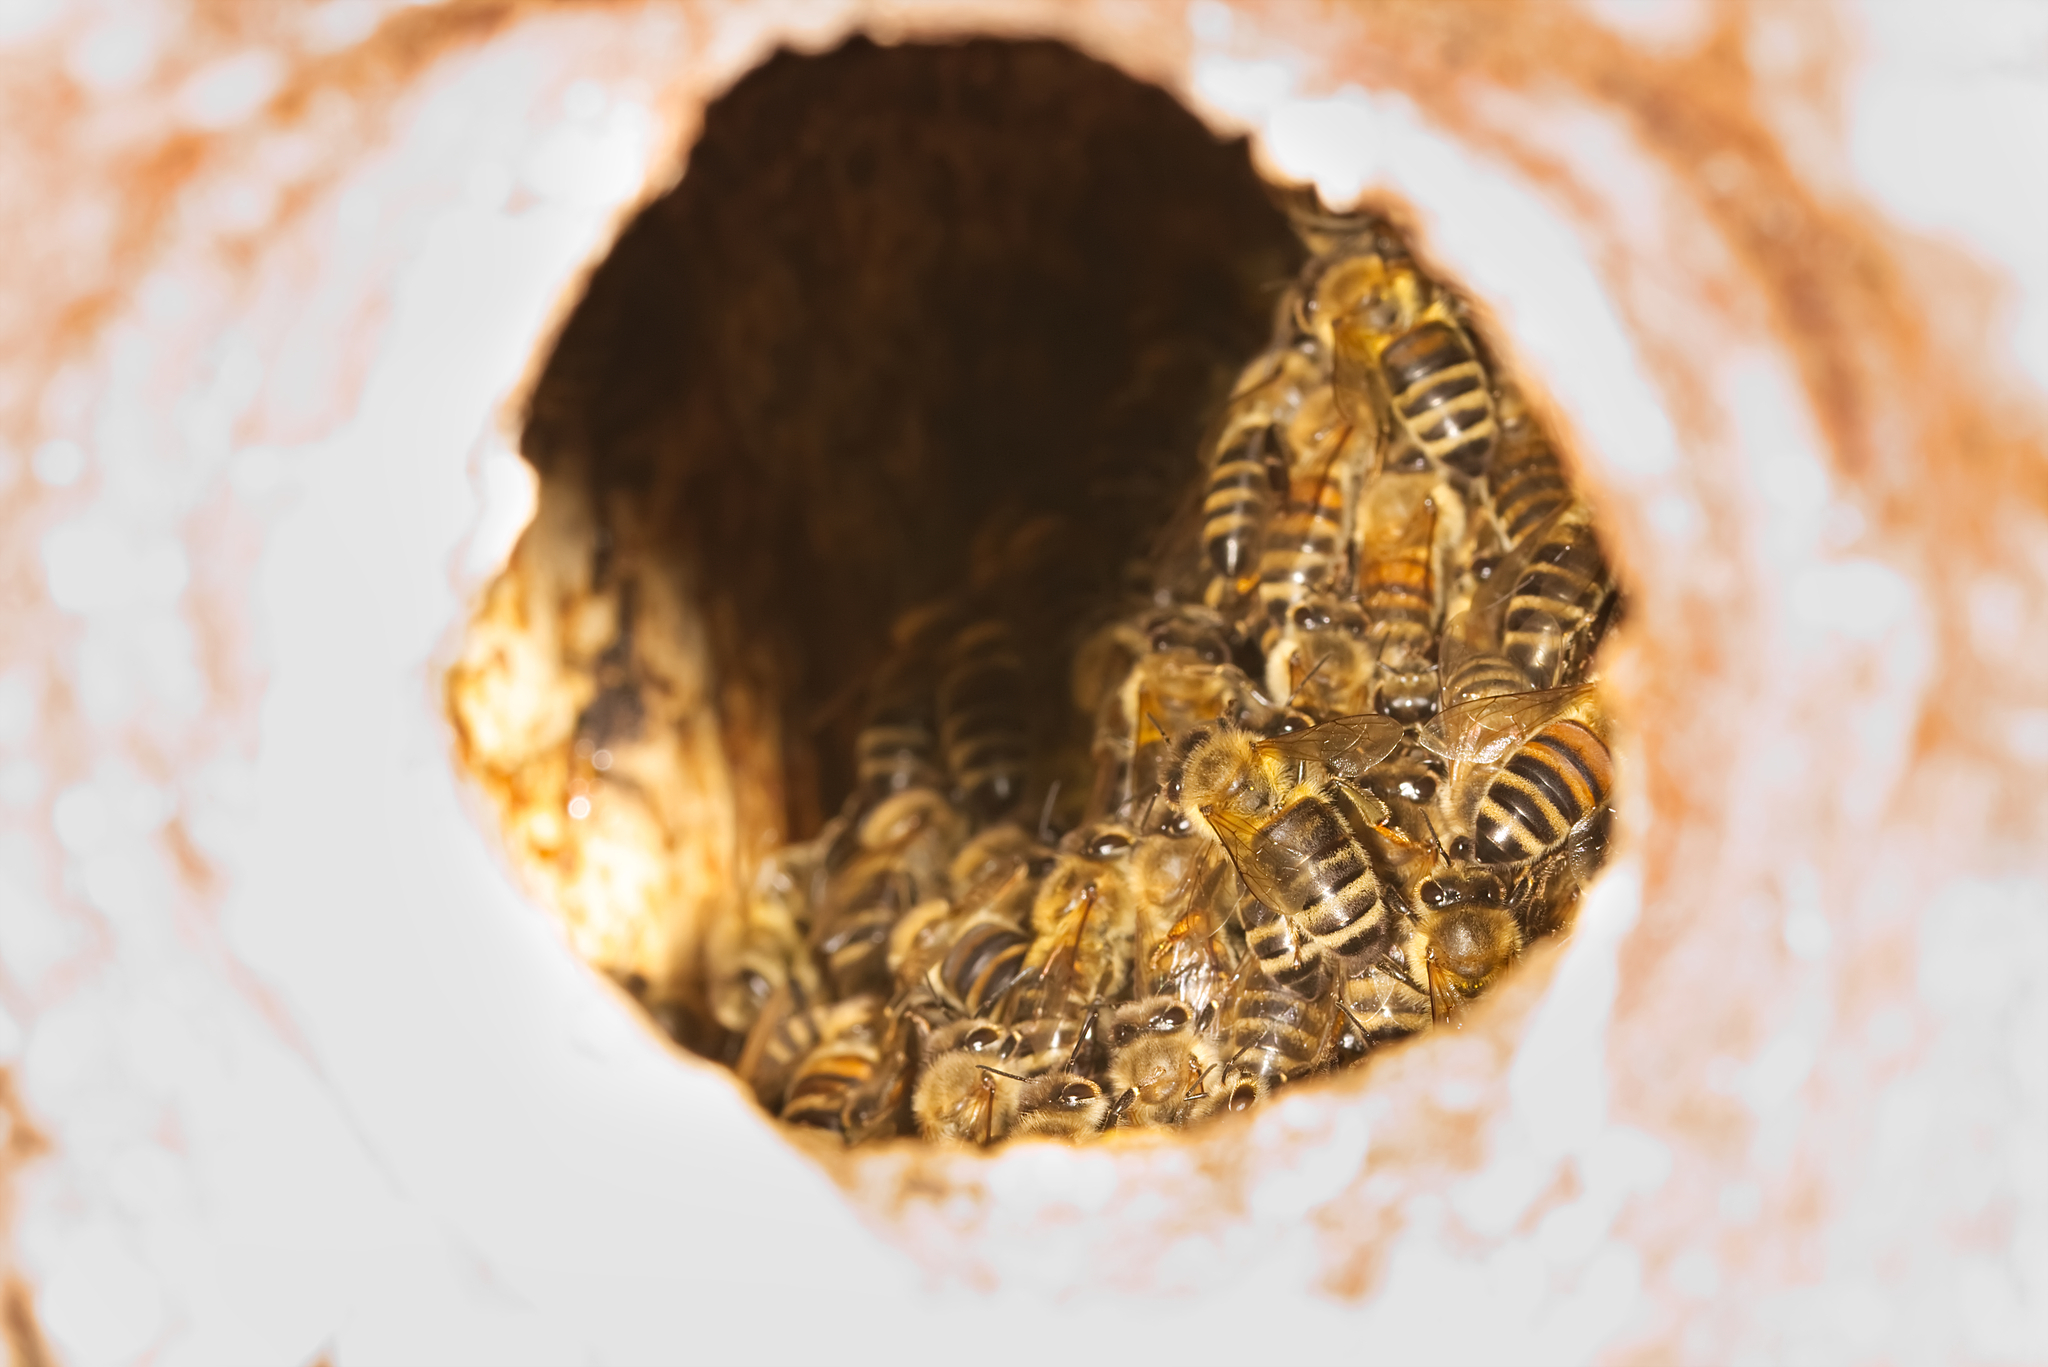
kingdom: Animalia
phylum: Arthropoda
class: Insecta
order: Hymenoptera
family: Apidae
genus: Apis
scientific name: Apis mellifera
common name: Honey bee
